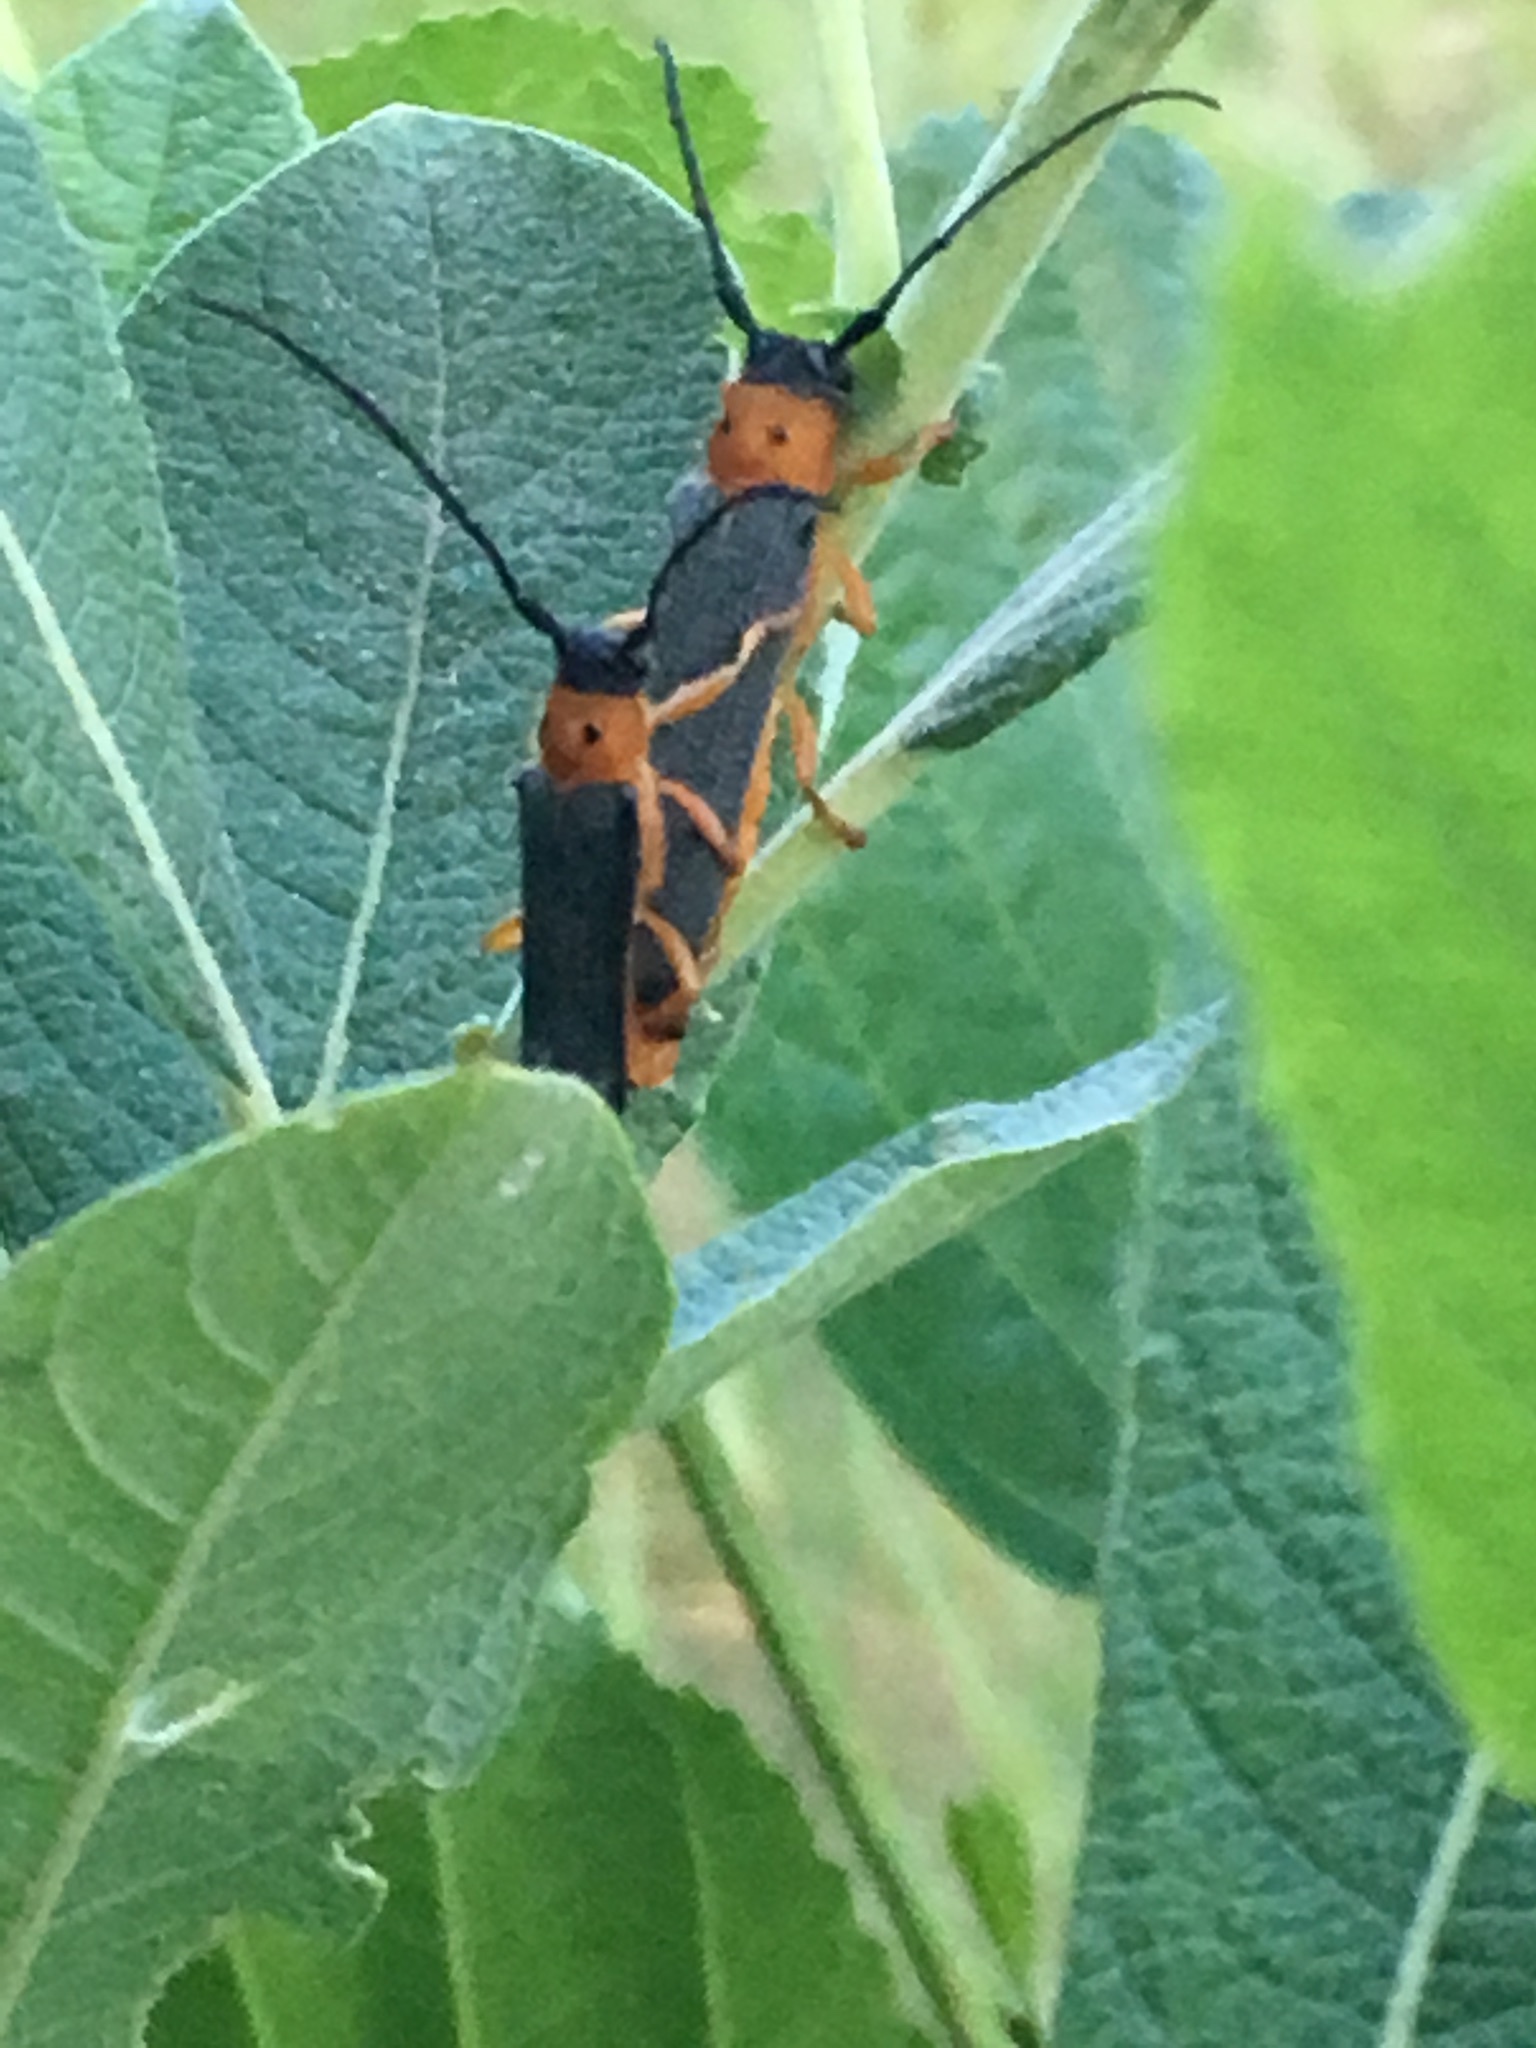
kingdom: Animalia
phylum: Arthropoda
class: Insecta
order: Coleoptera
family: Cerambycidae
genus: Oberea
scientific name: Oberea oculata
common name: Eyed longhorn beetle
